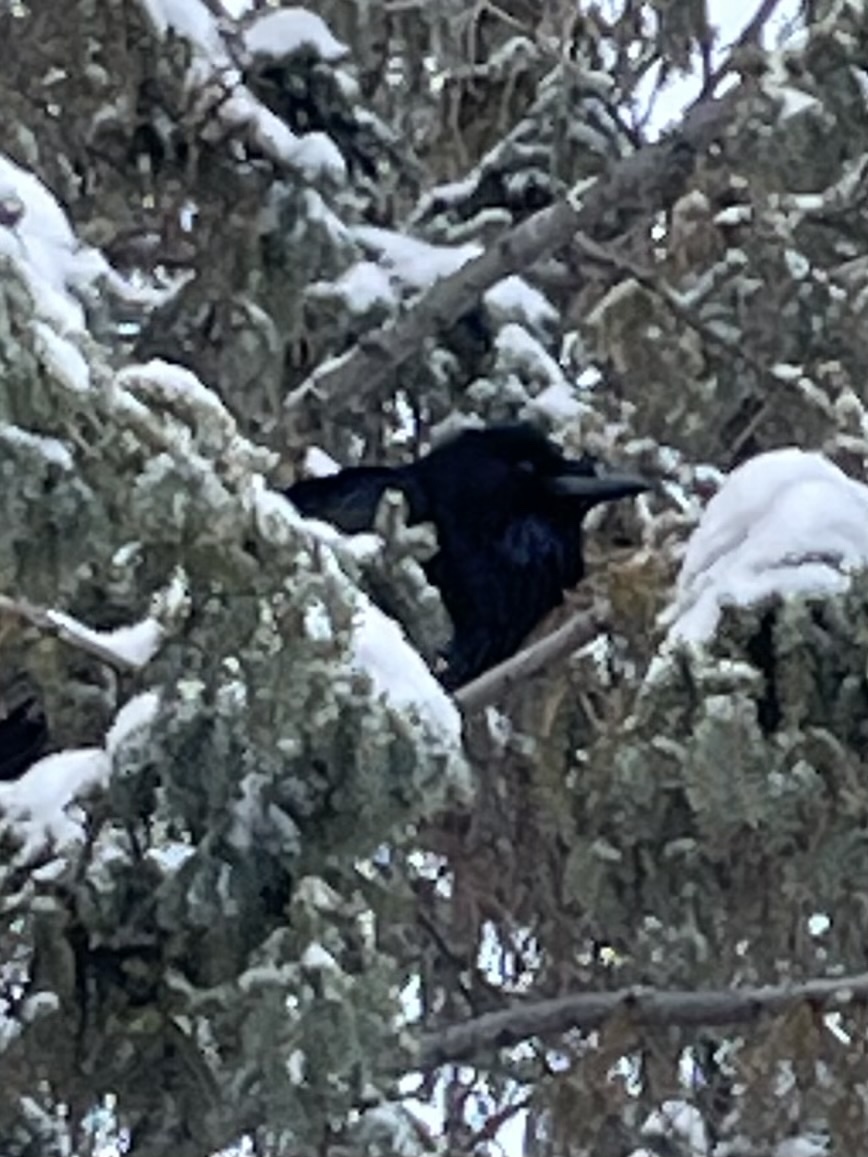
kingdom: Animalia
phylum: Chordata
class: Aves
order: Passeriformes
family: Corvidae
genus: Corvus
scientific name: Corvus corax
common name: Common raven
